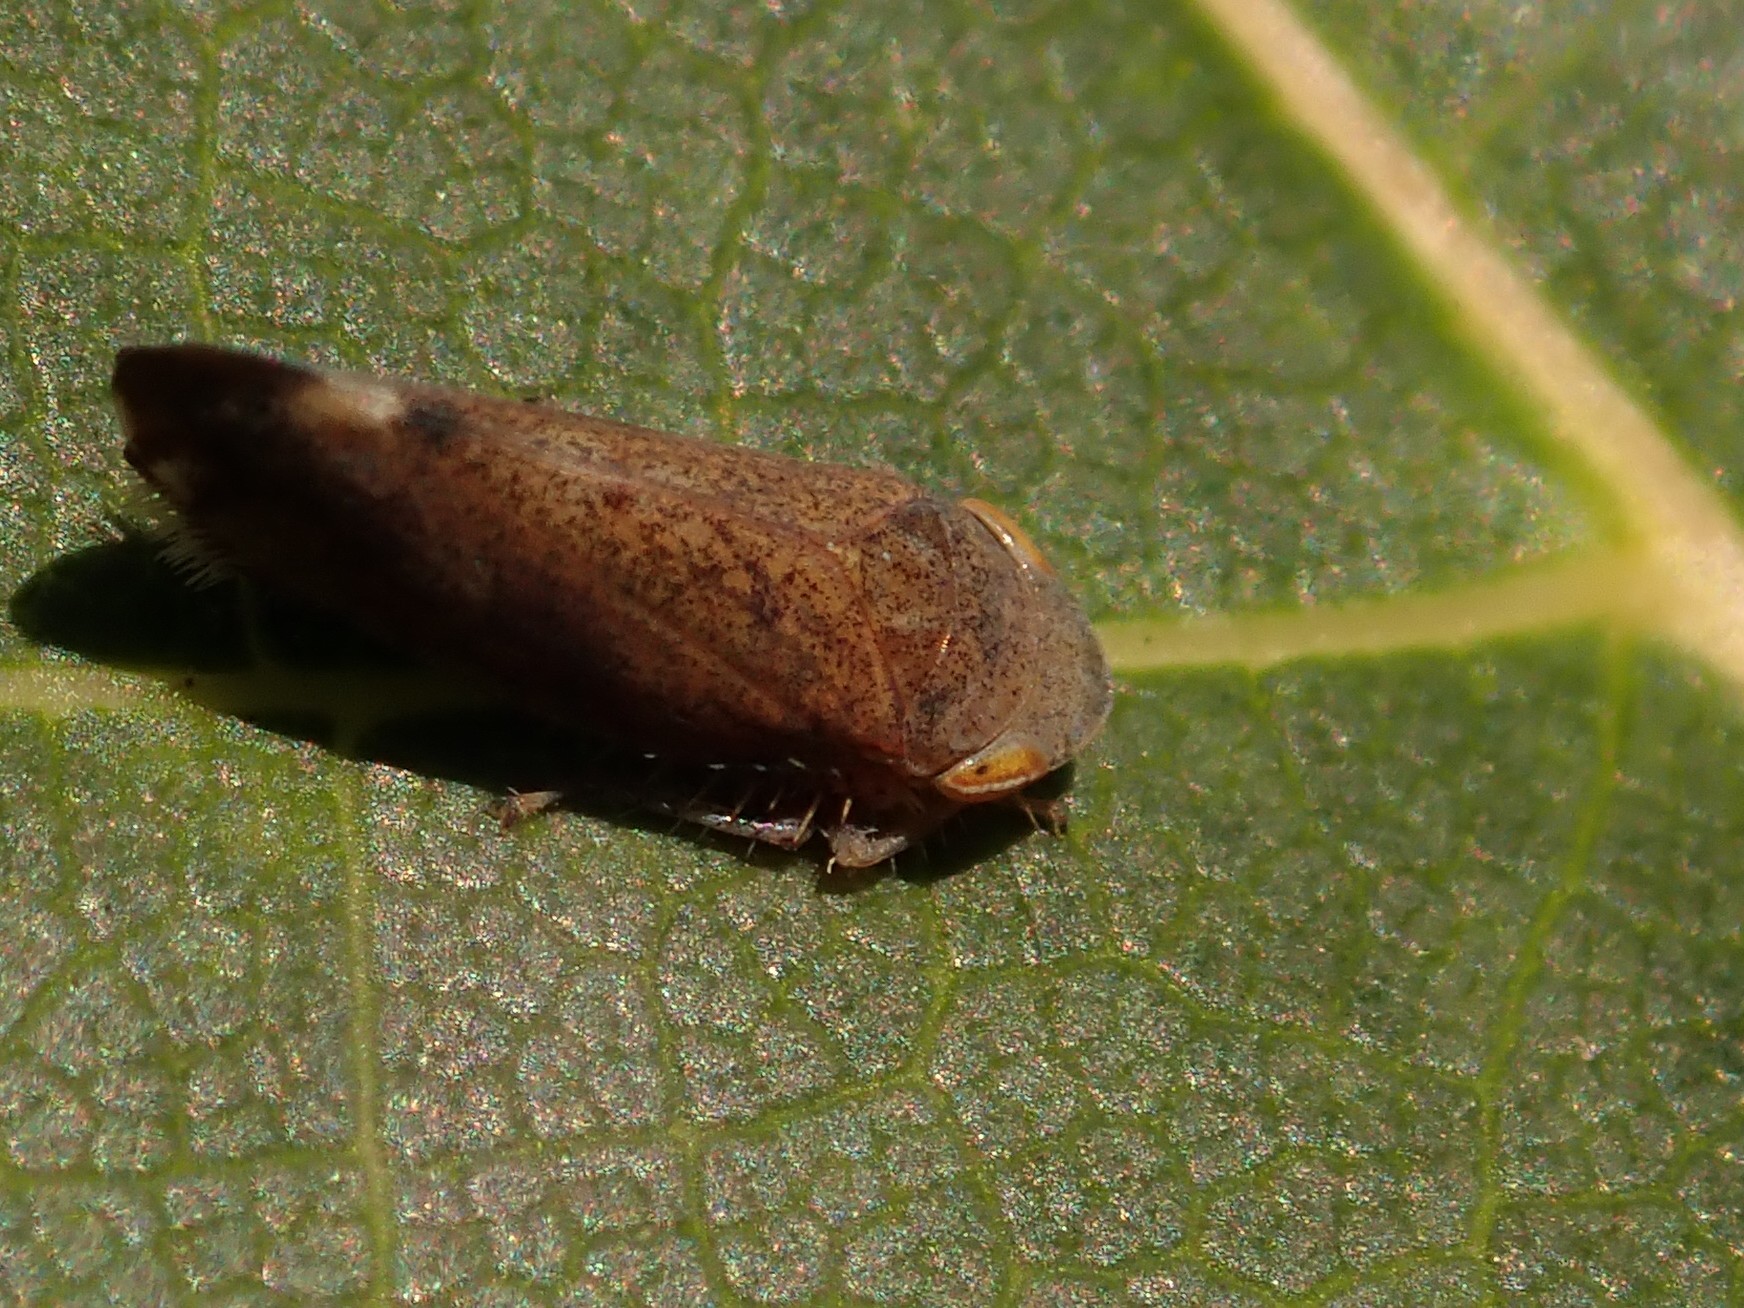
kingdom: Animalia
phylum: Arthropoda
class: Insecta
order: Hemiptera
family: Cicadellidae
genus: Fieberiella
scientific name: Fieberiella
